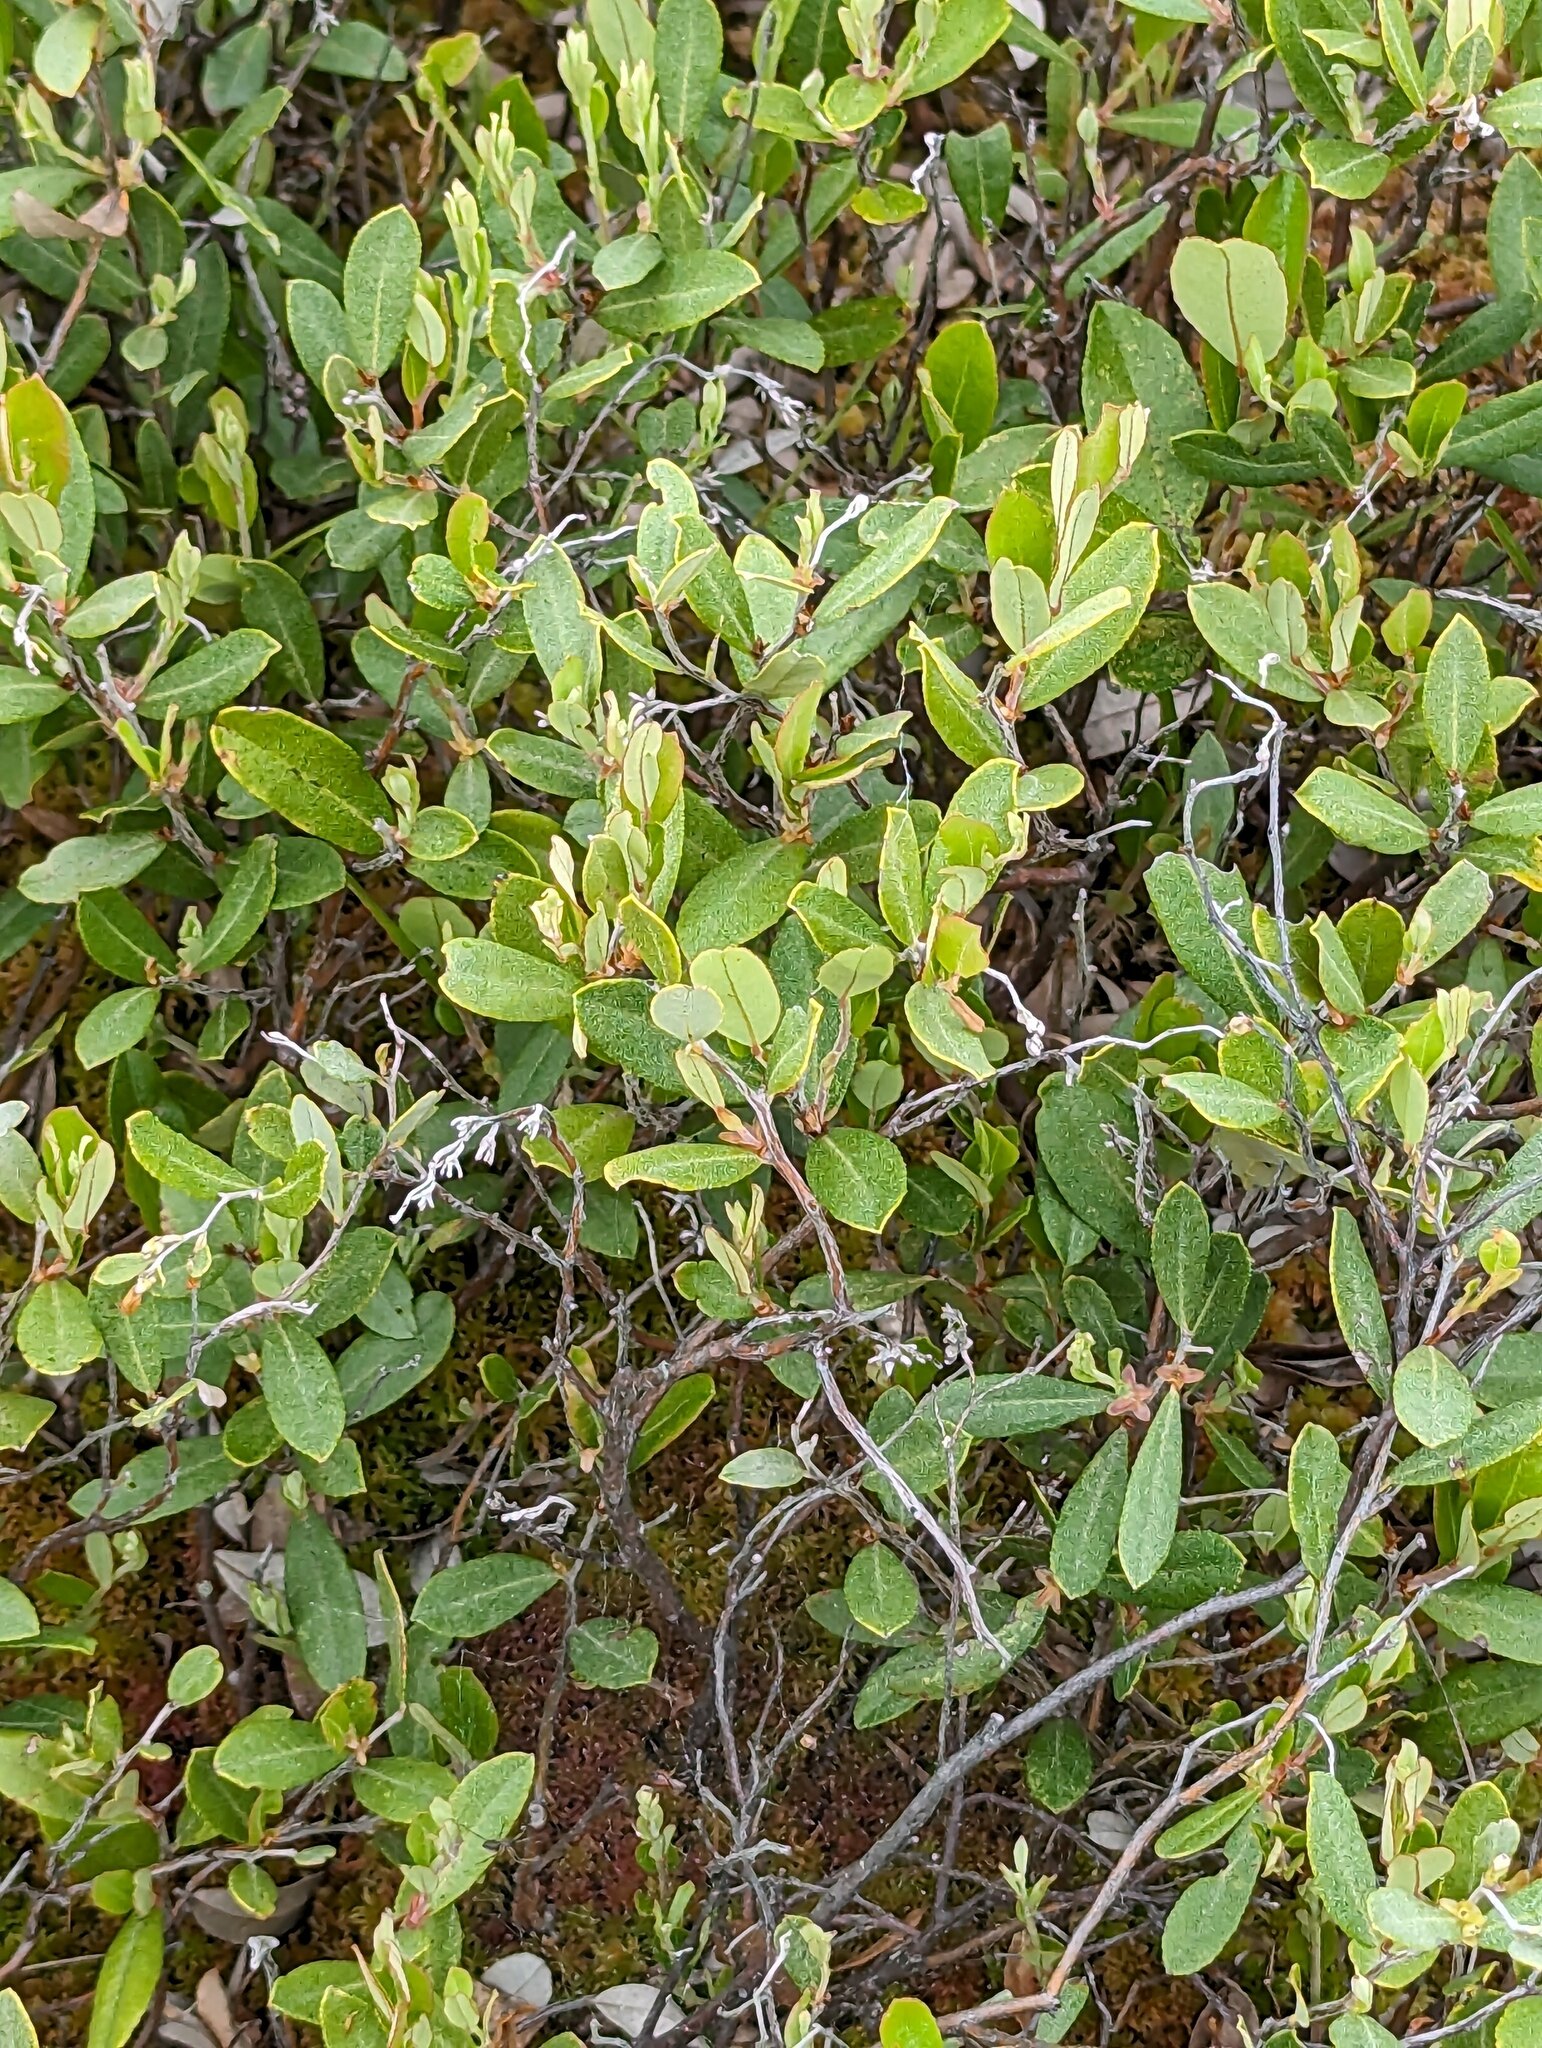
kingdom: Plantae
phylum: Tracheophyta
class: Magnoliopsida
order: Ericales
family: Ericaceae
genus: Chamaedaphne
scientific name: Chamaedaphne calyculata
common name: Leatherleaf
